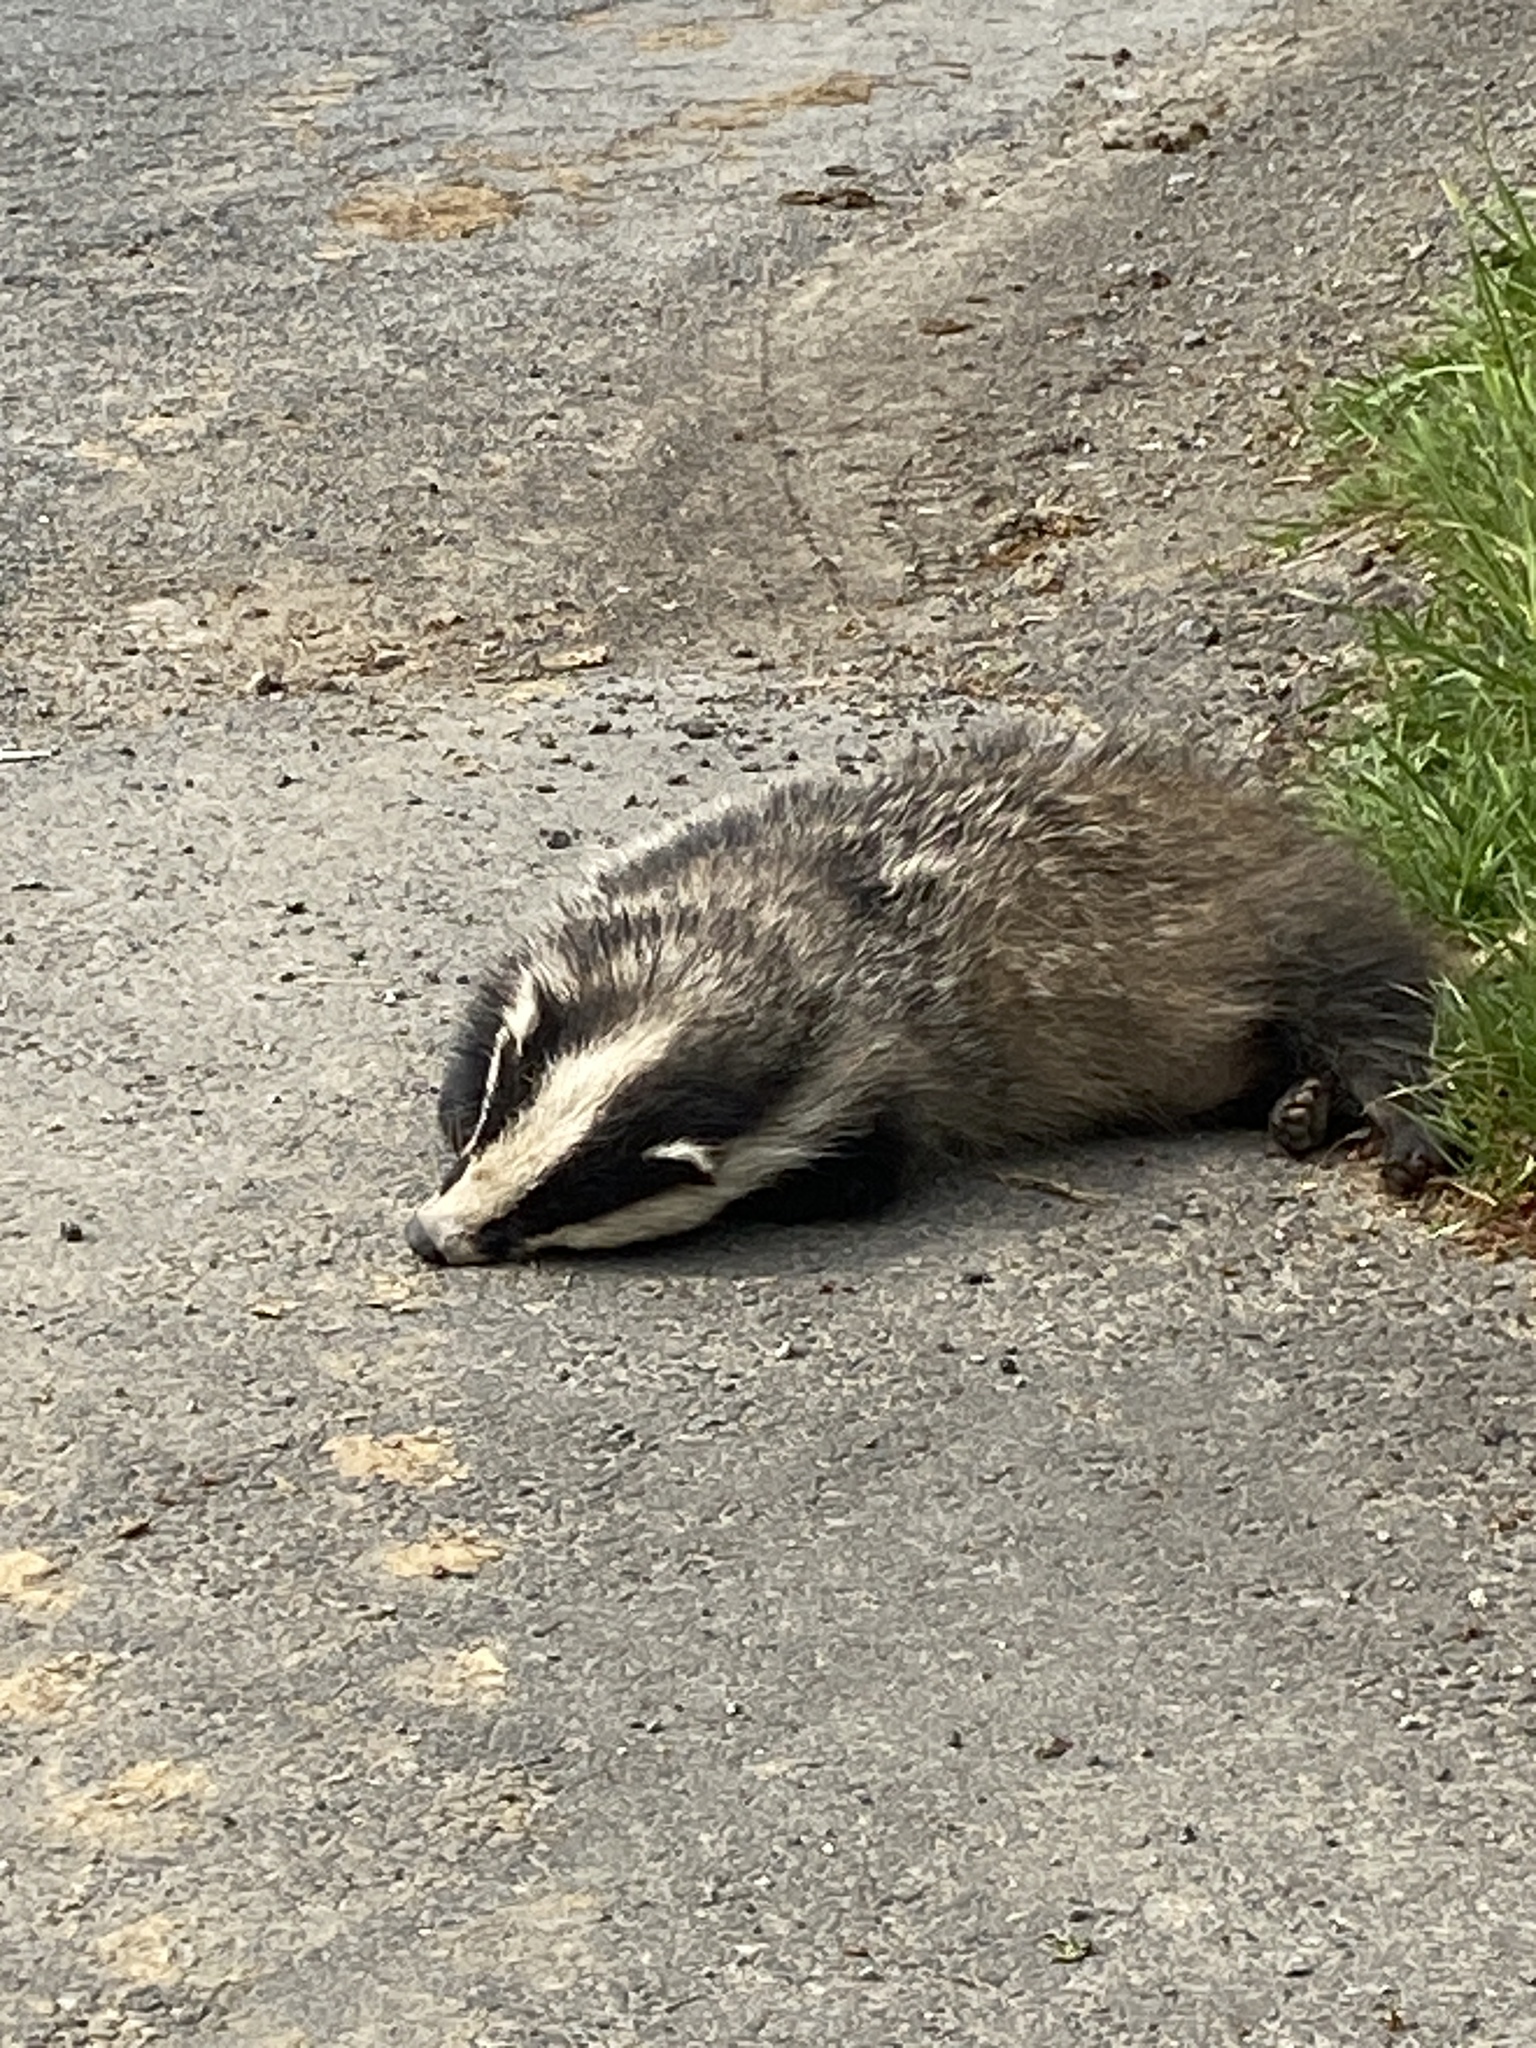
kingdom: Animalia
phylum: Chordata
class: Mammalia
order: Carnivora
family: Mustelidae
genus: Meles
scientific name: Meles meles
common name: Eurasian badger
